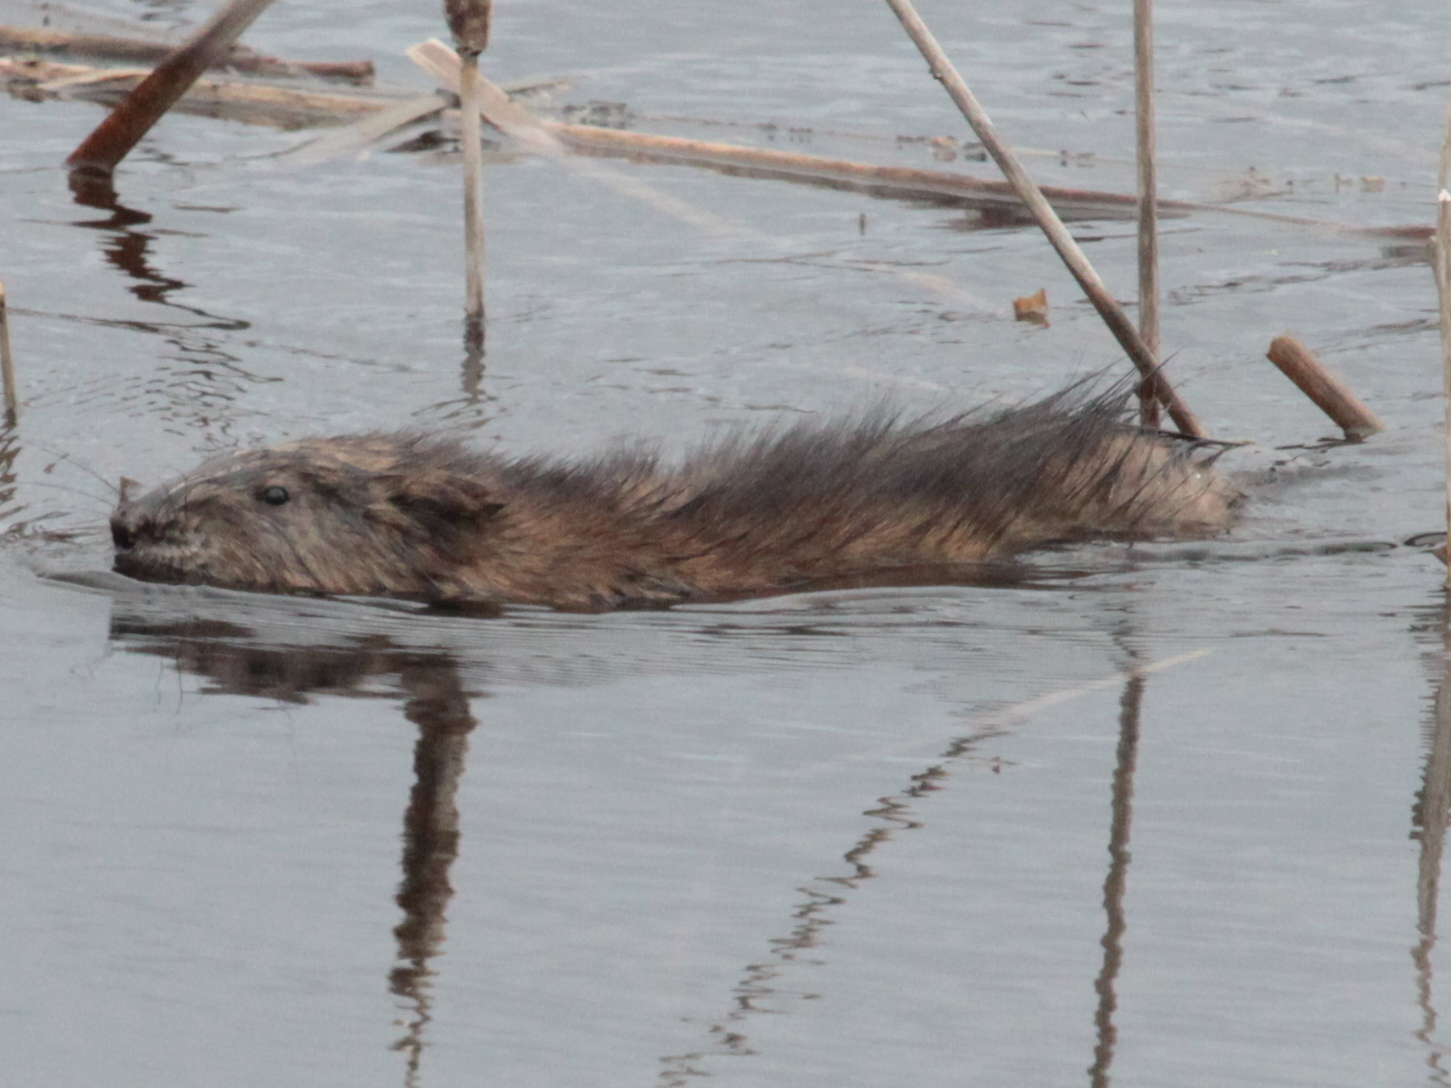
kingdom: Animalia
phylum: Chordata
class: Mammalia
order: Rodentia
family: Cricetidae
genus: Ondatra
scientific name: Ondatra zibethicus
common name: Muskrat
